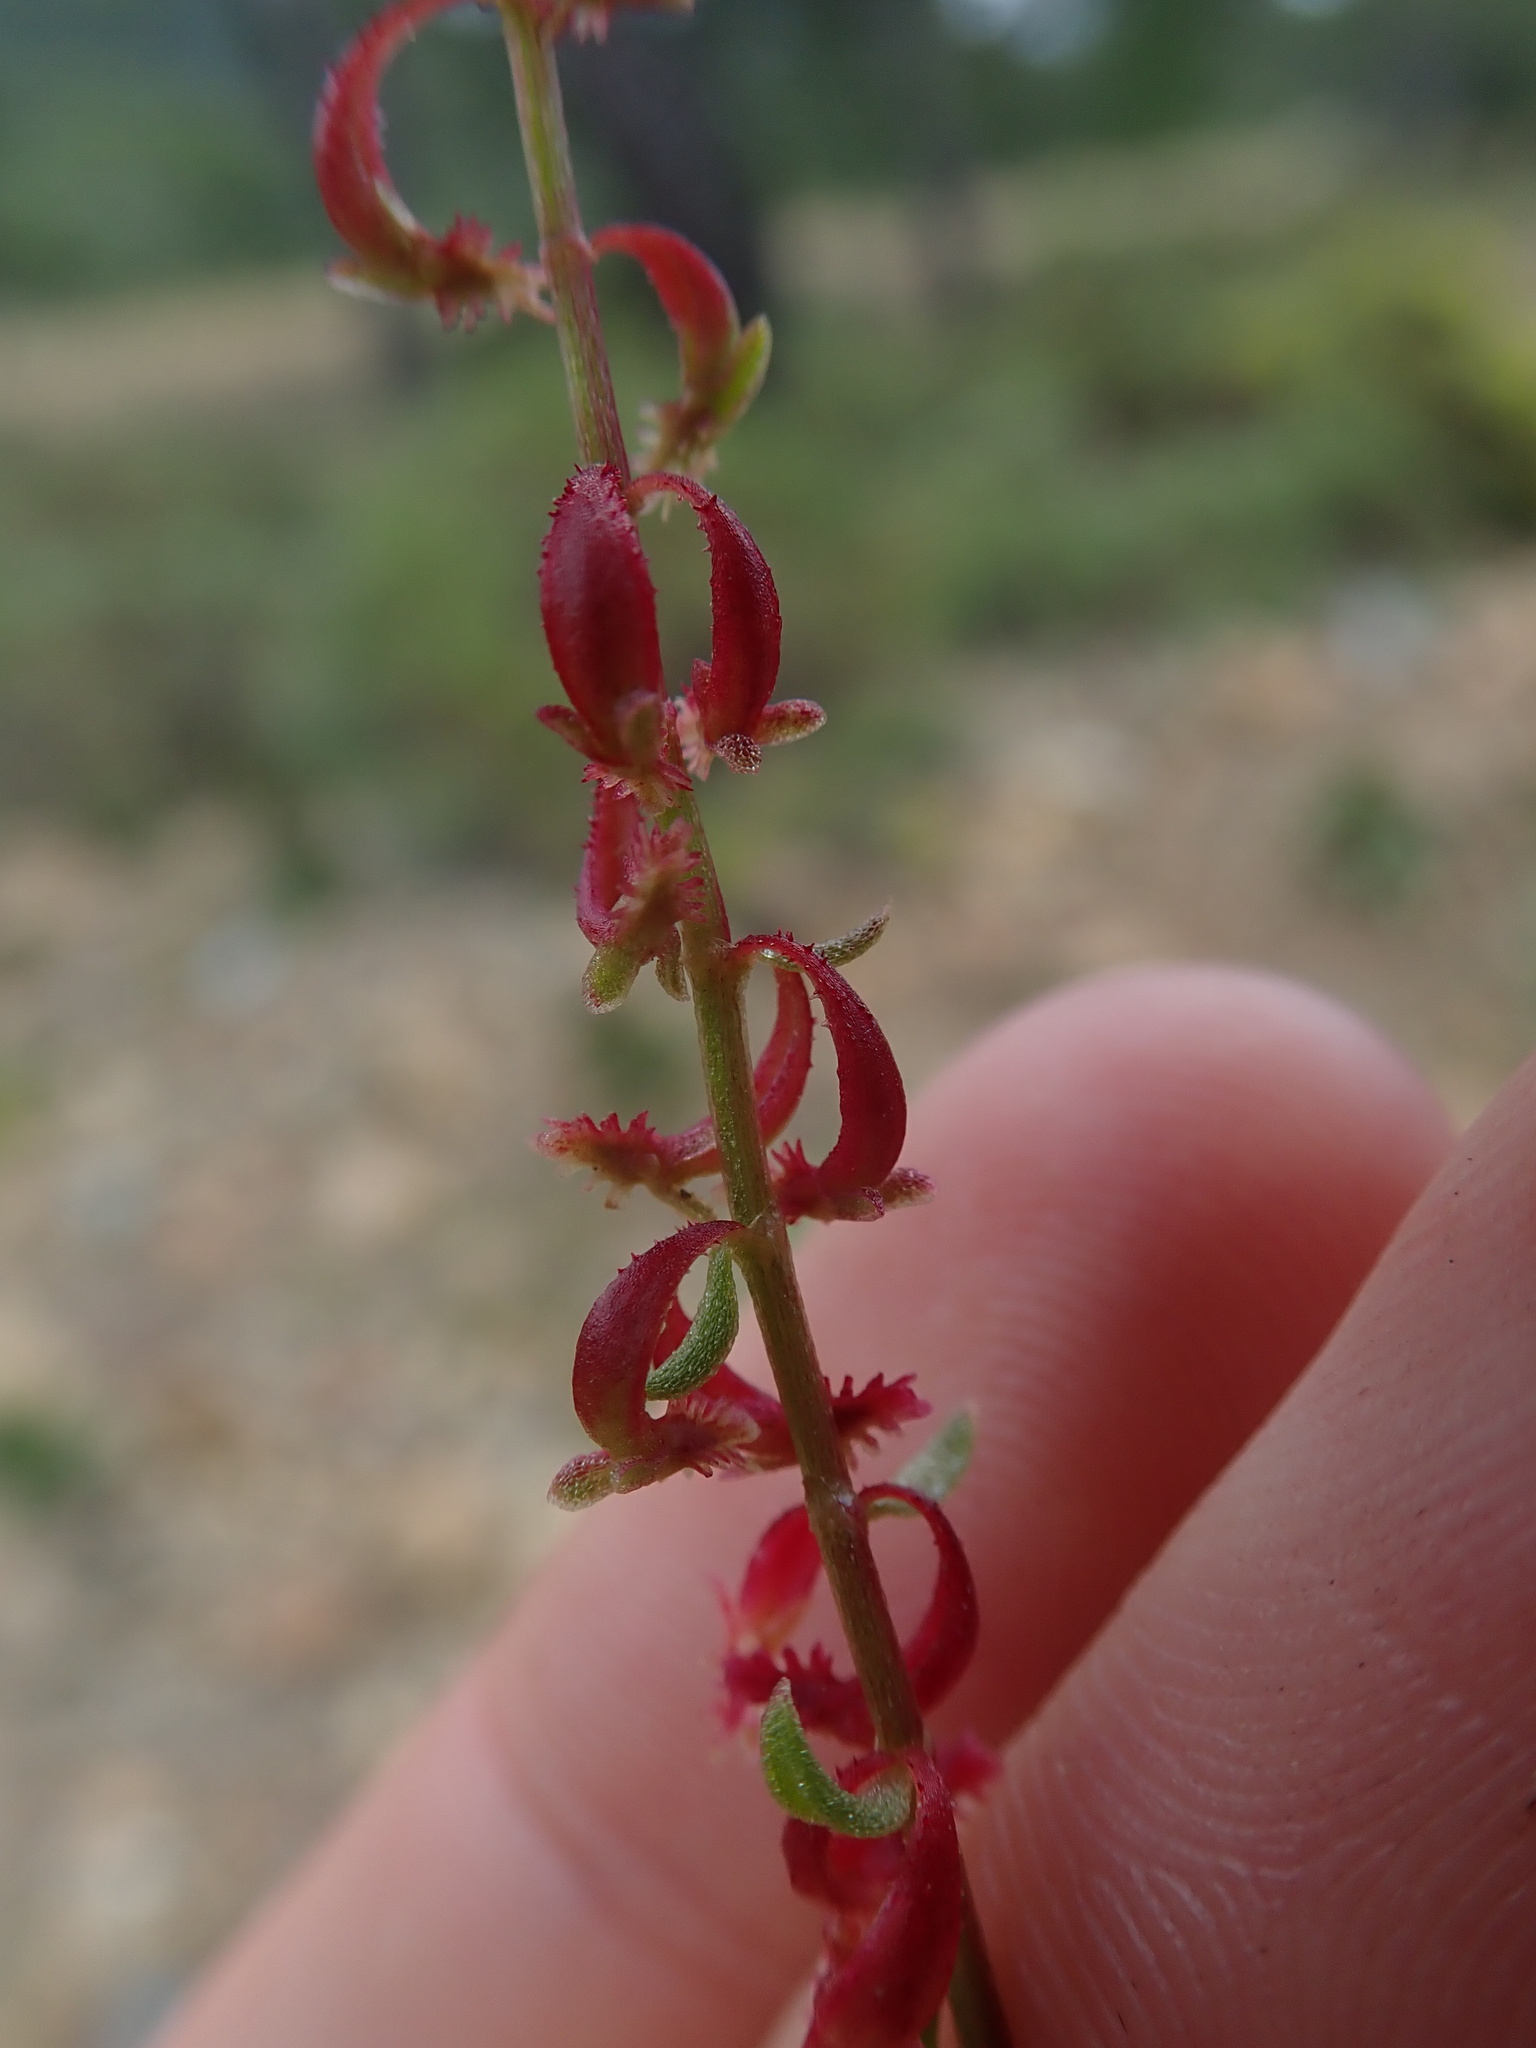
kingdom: Plantae
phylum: Tracheophyta
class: Magnoliopsida
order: Caryophyllales
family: Polygonaceae
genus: Rumex
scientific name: Rumex bucephalophorus
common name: Red dock
